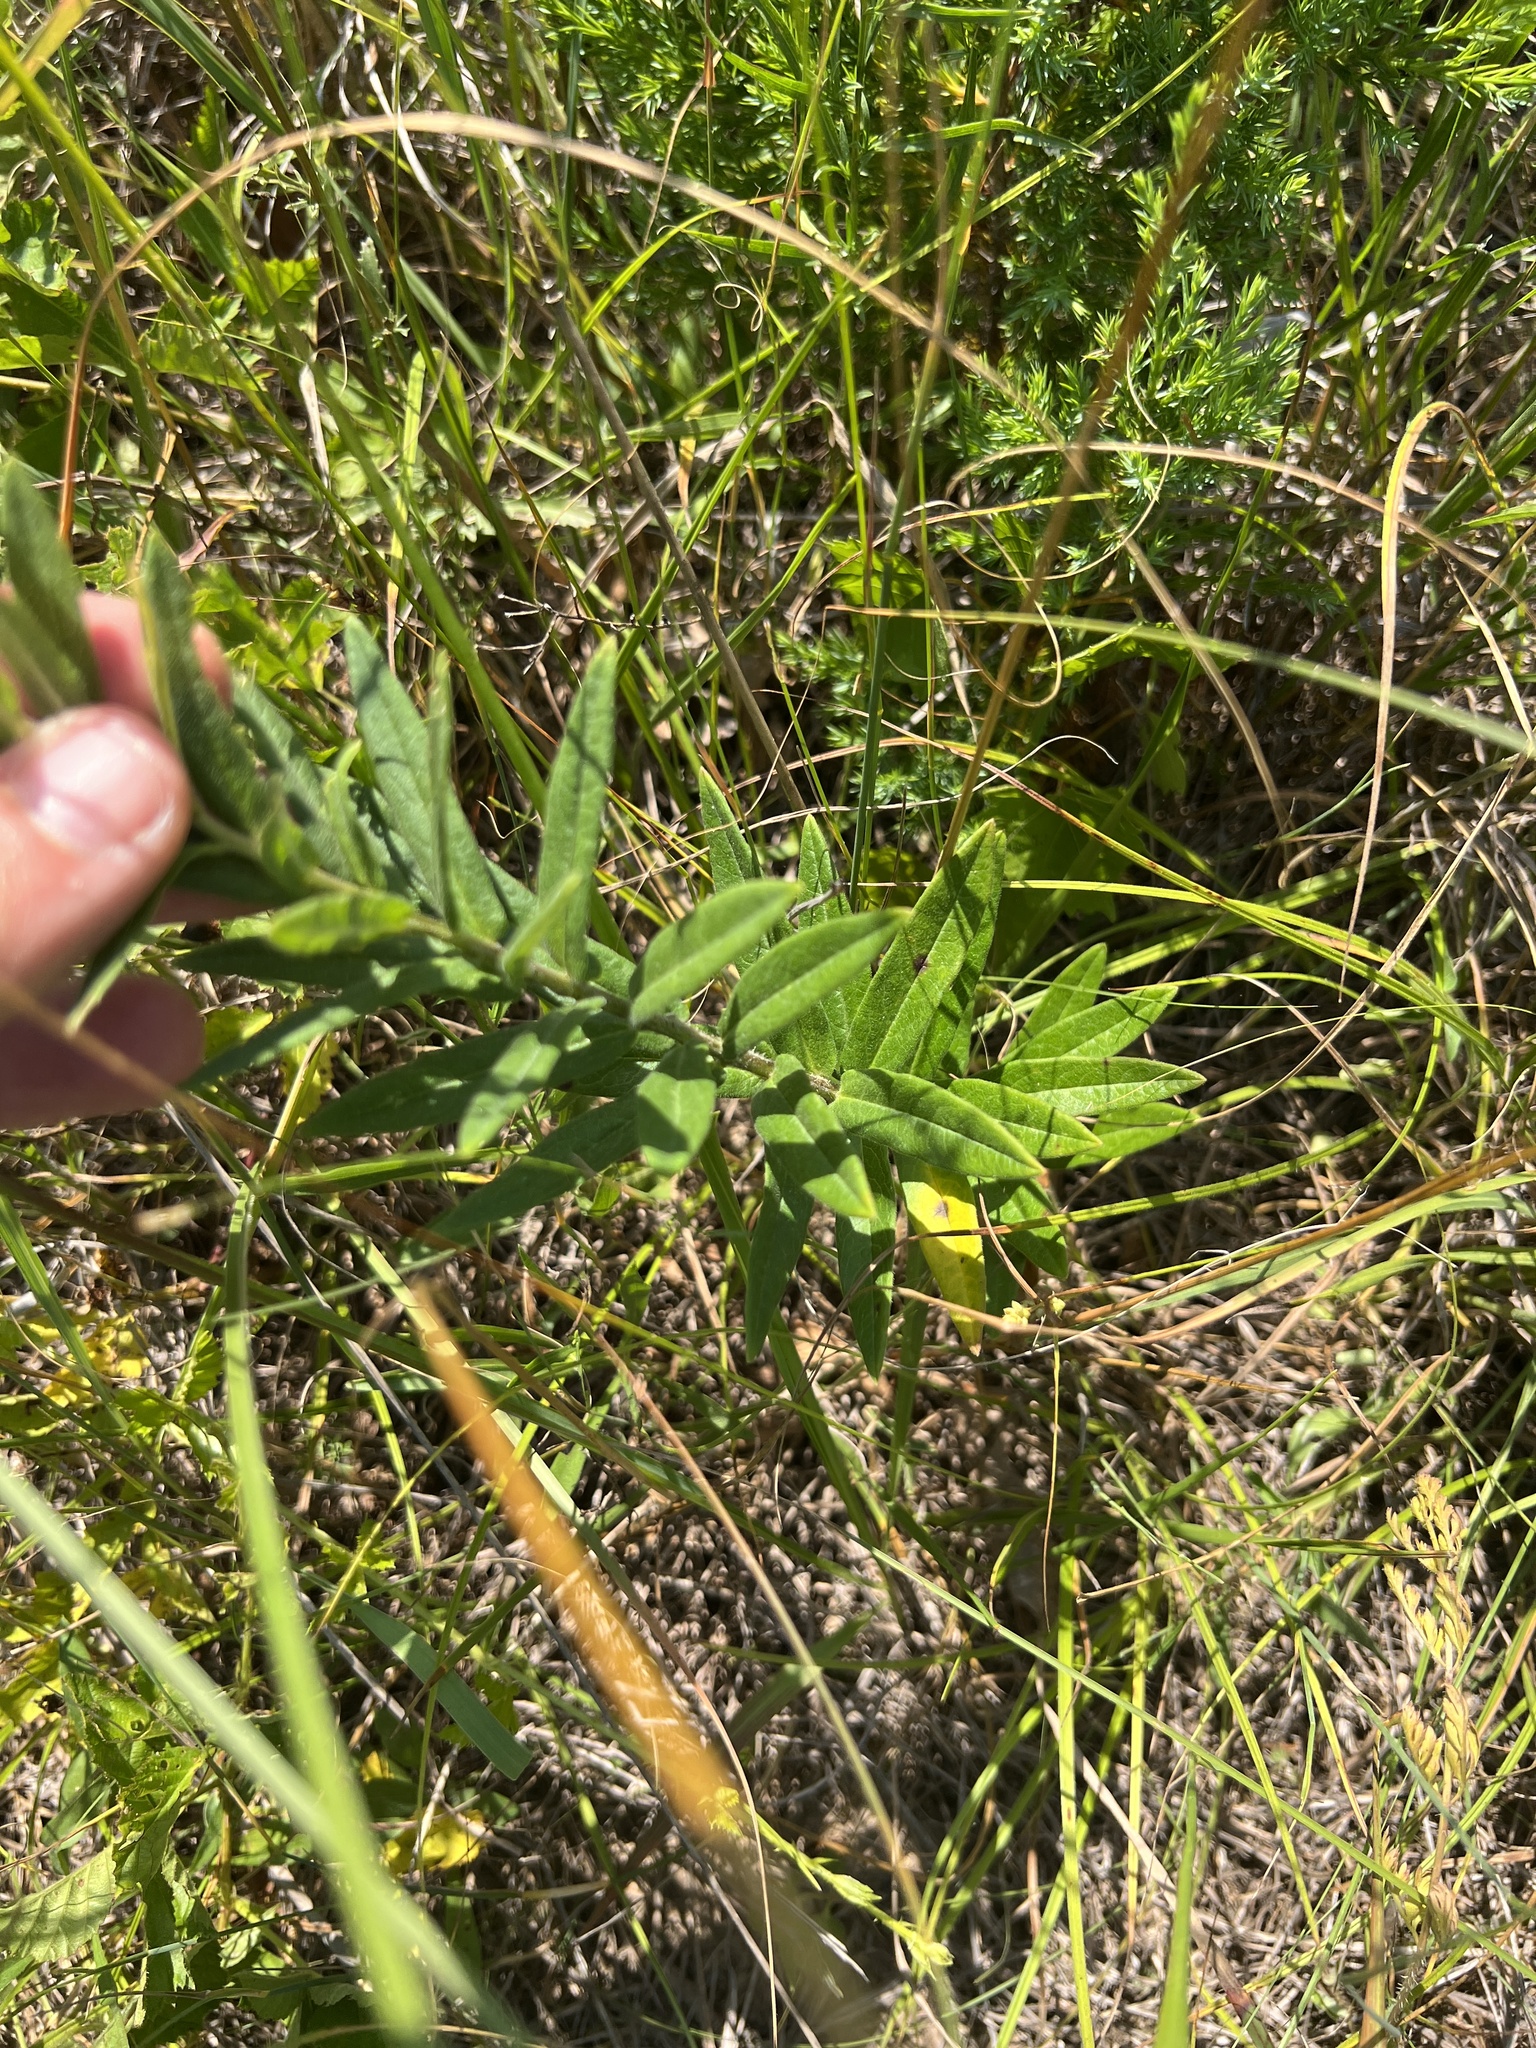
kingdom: Plantae
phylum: Tracheophyta
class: Magnoliopsida
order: Gentianales
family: Apocynaceae
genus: Asclepias
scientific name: Asclepias tuberosa
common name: Butterfly milkweed
